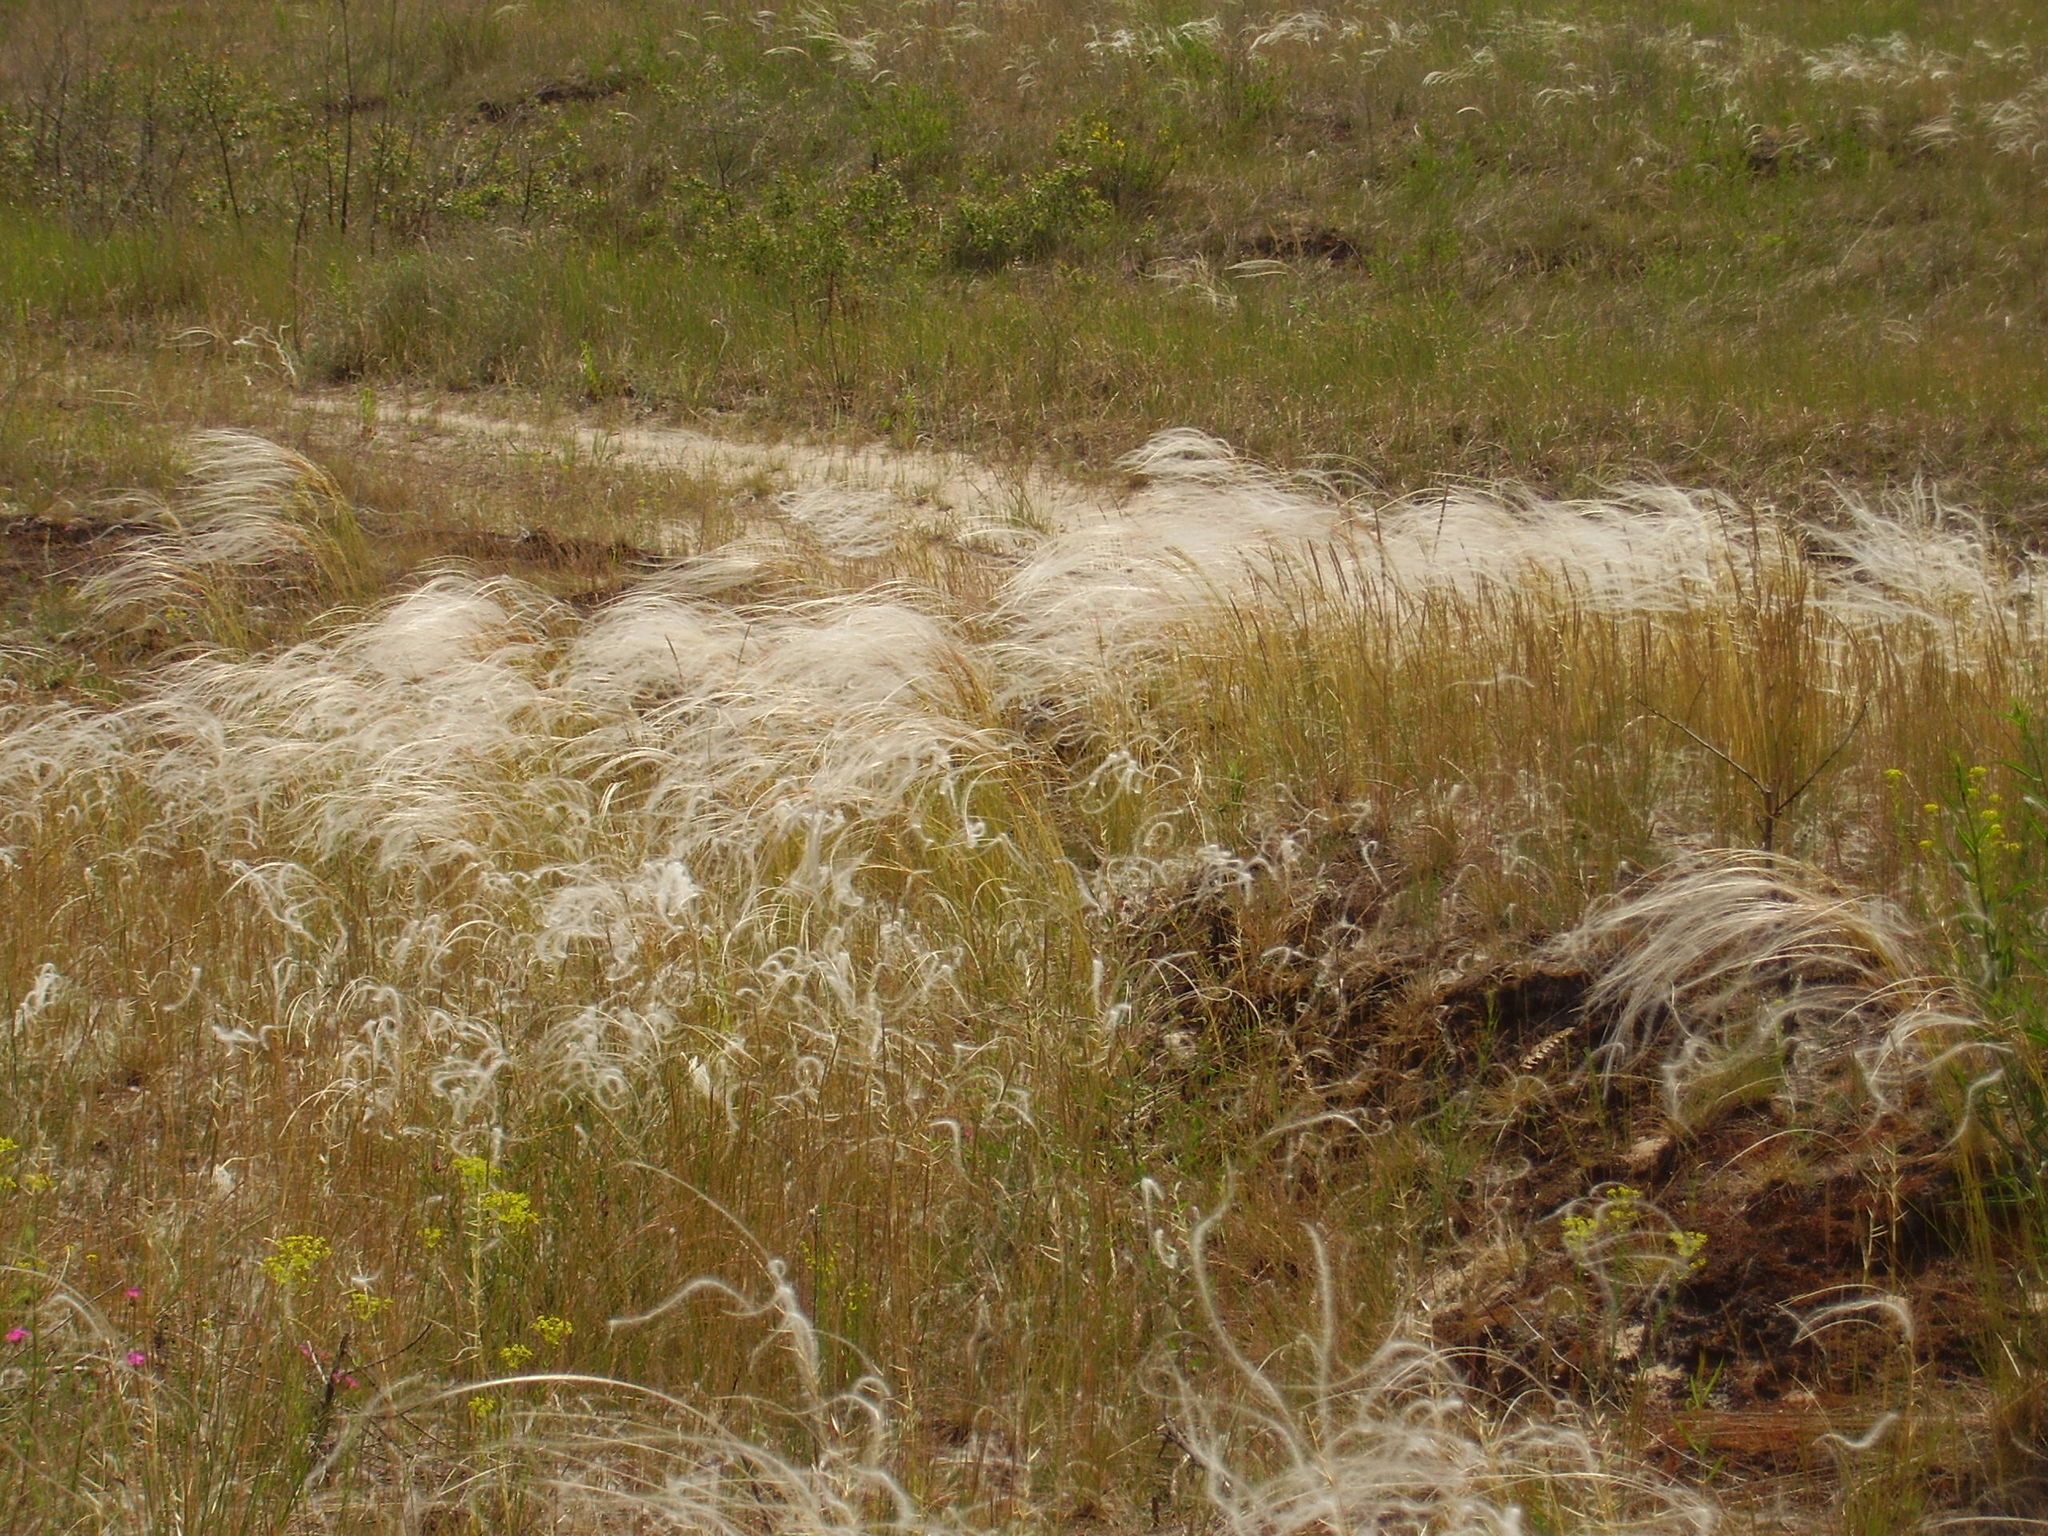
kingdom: Plantae
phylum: Tracheophyta
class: Liliopsida
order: Poales
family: Poaceae
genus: Stipa
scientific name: Stipa borysthenica
